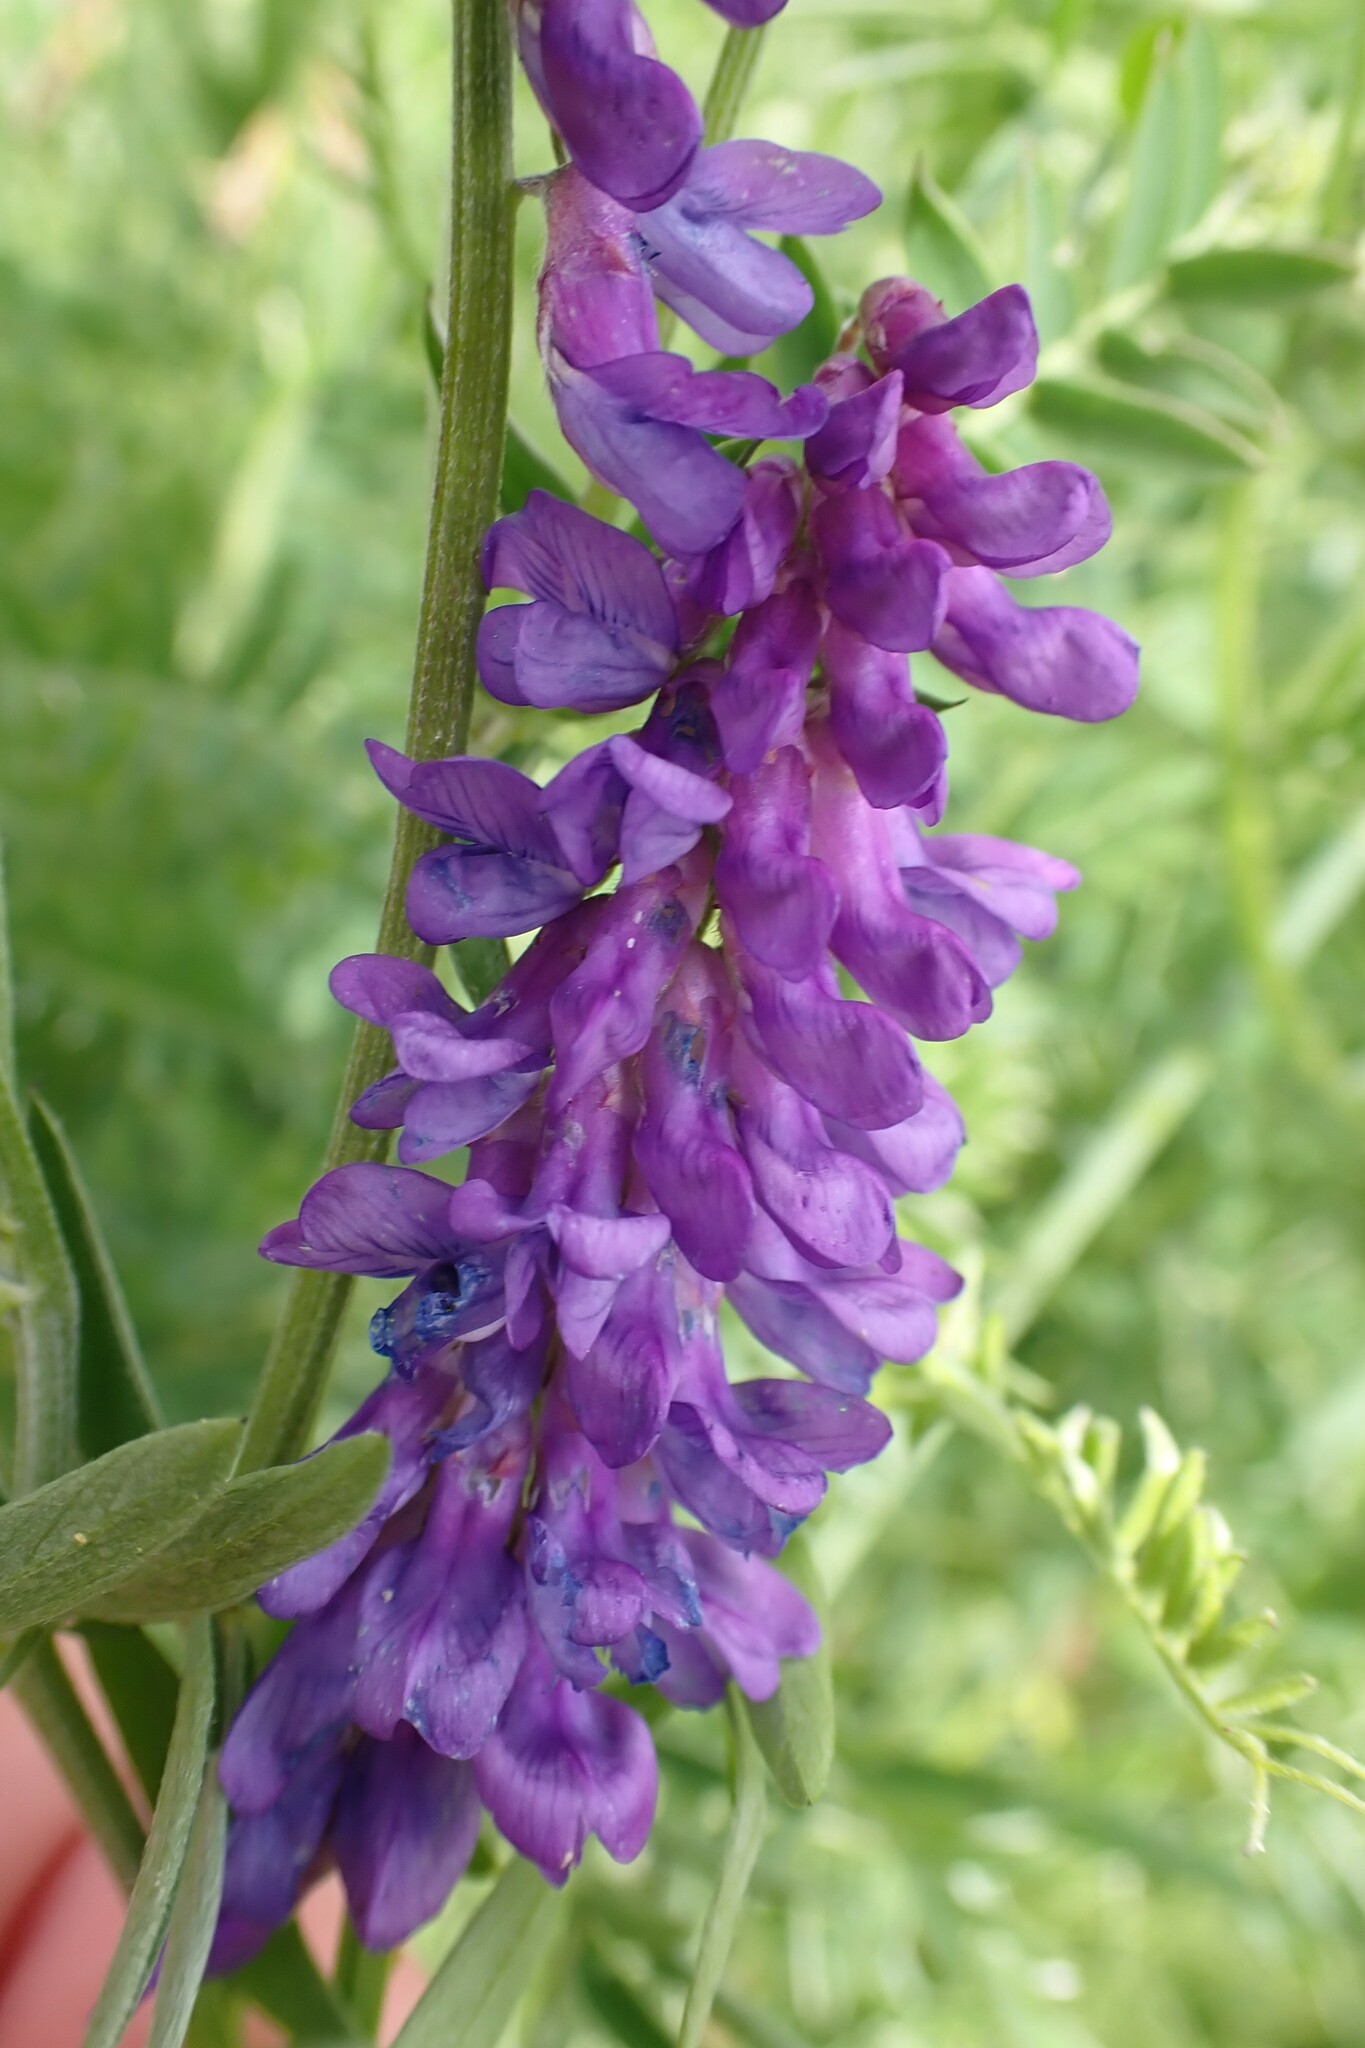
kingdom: Plantae
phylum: Tracheophyta
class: Magnoliopsida
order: Fabales
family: Fabaceae
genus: Vicia
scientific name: Vicia cracca
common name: Bird vetch
